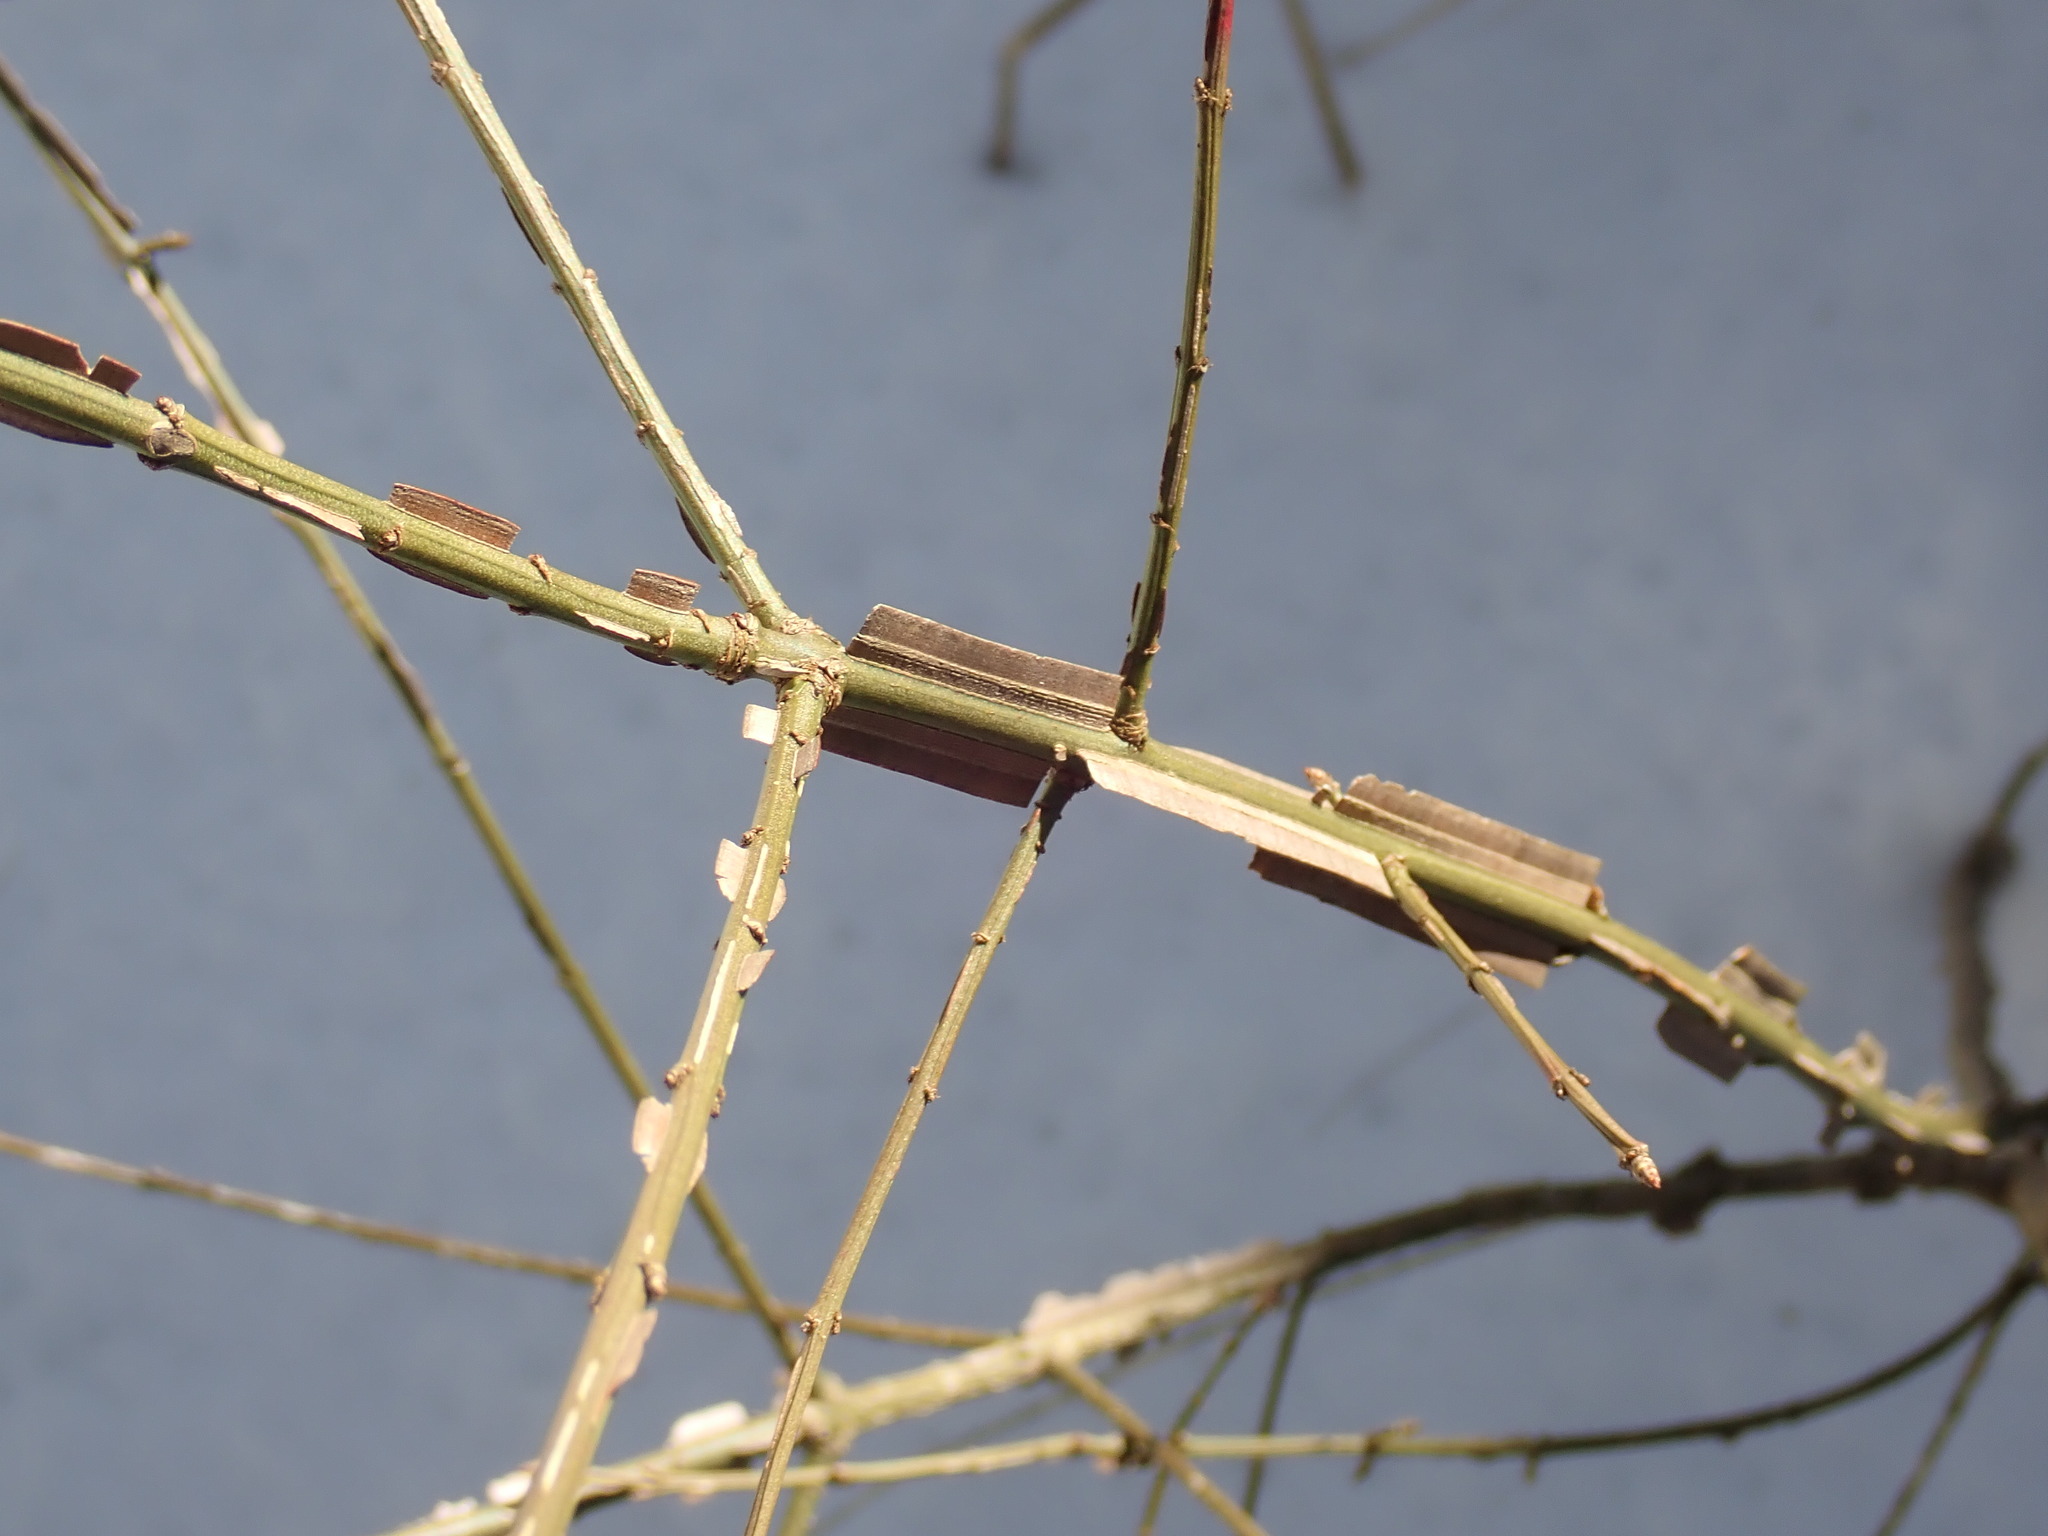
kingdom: Plantae
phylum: Tracheophyta
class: Magnoliopsida
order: Celastrales
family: Celastraceae
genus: Euonymus
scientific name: Euonymus alatus
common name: Winged euonymus
